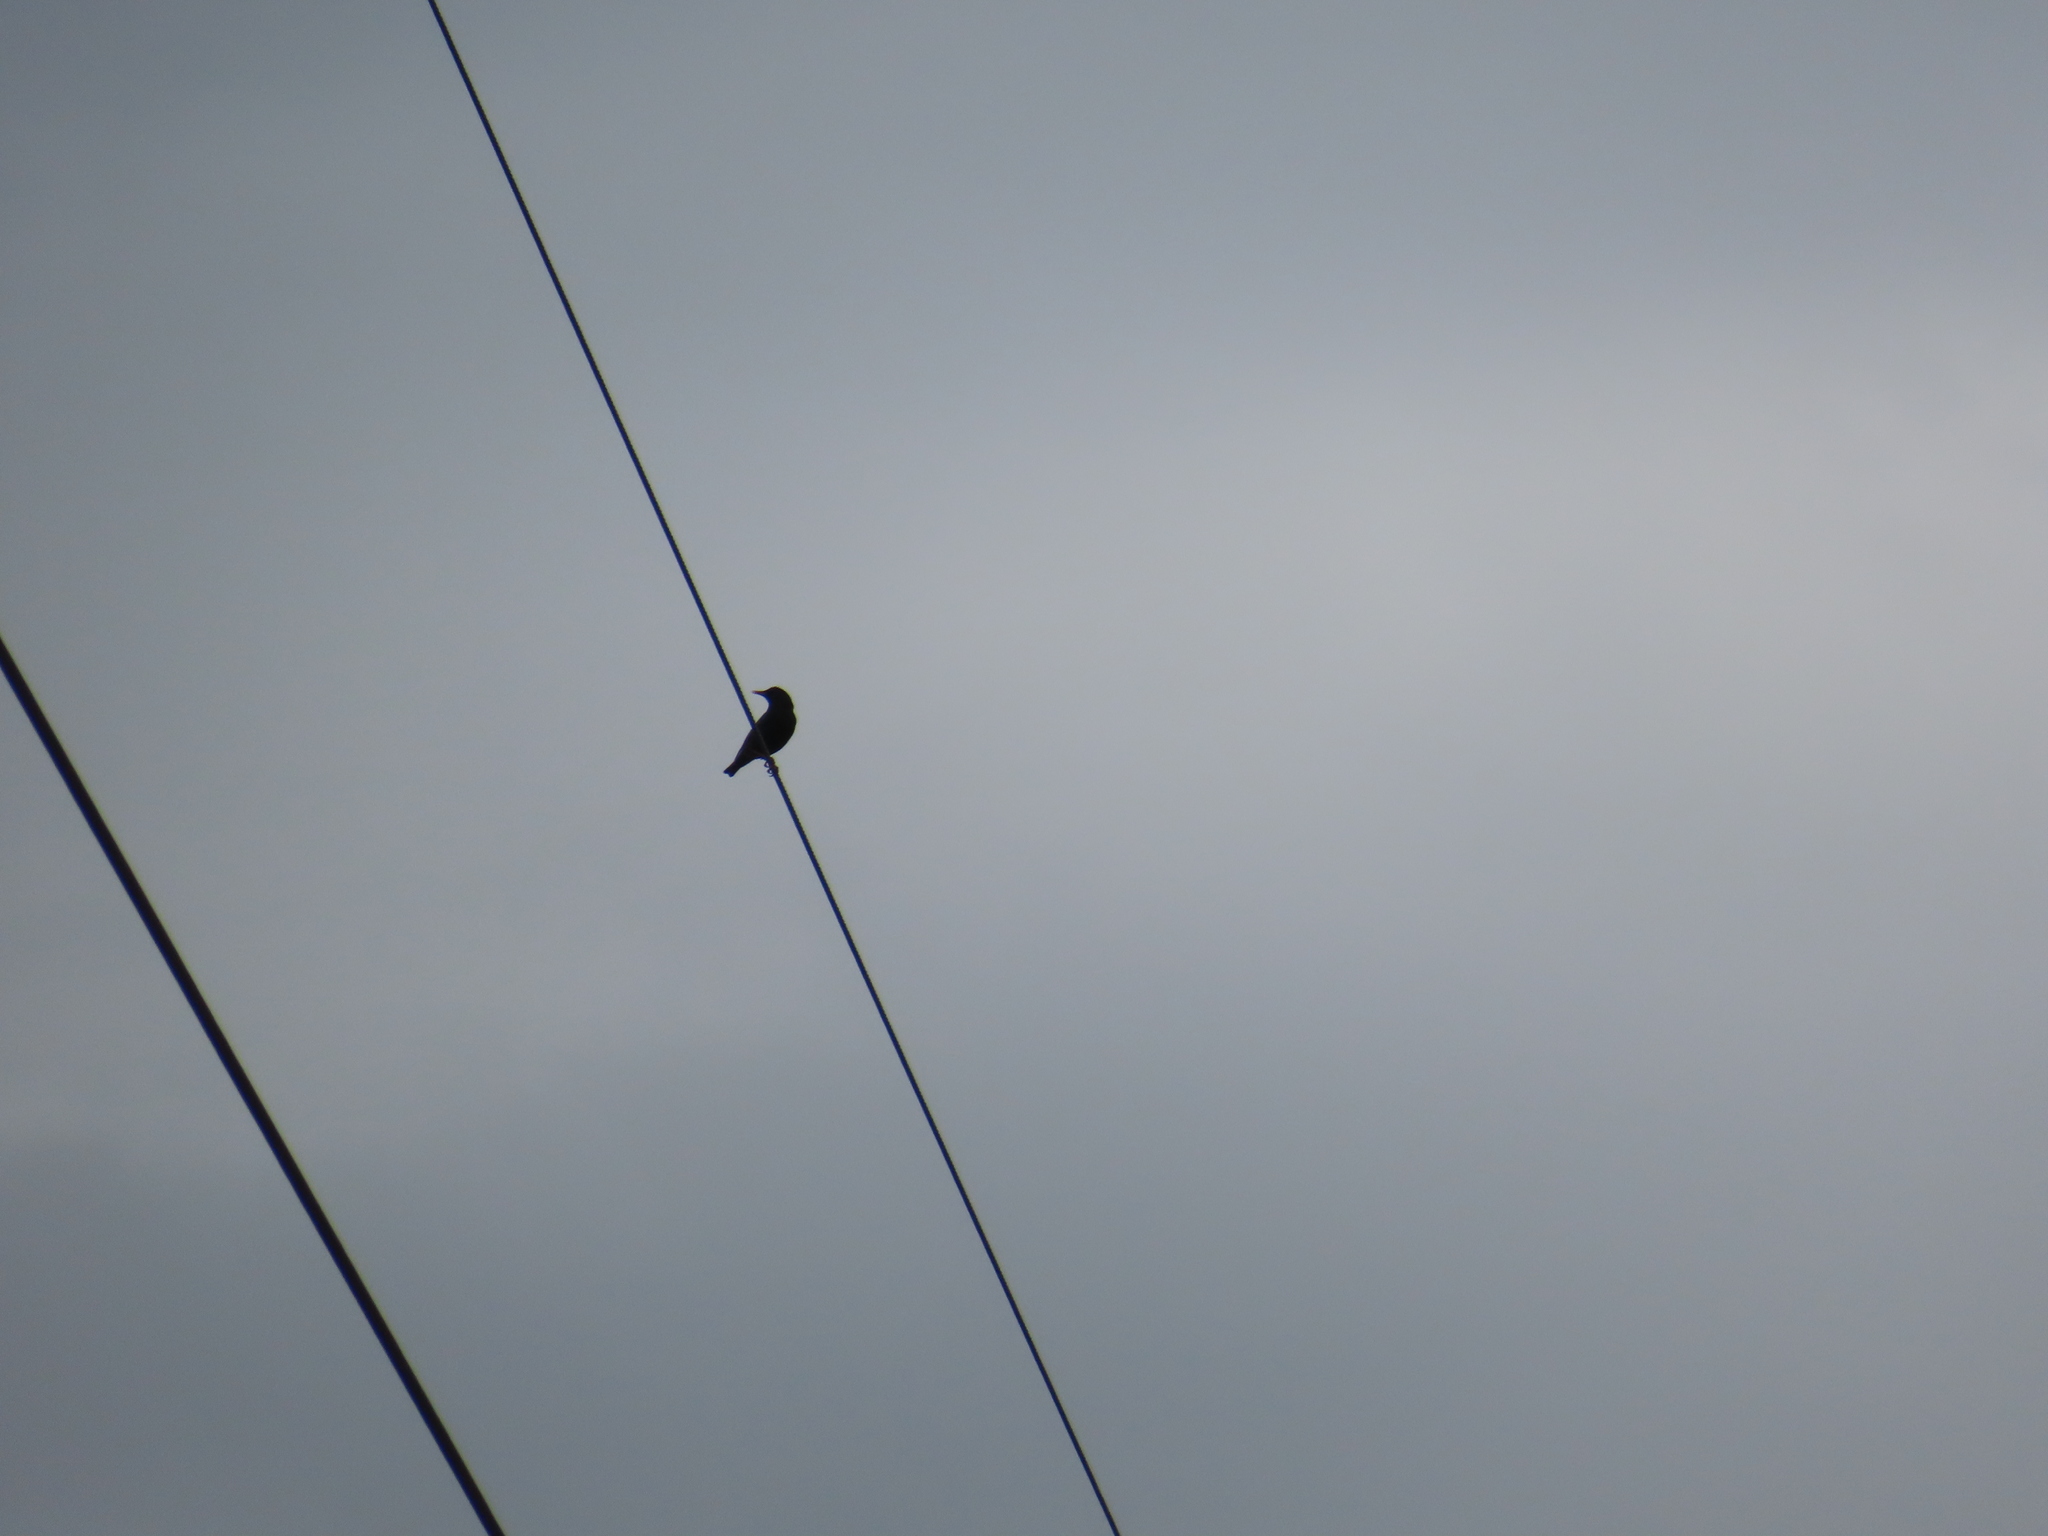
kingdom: Animalia
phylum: Chordata
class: Aves
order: Passeriformes
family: Sturnidae
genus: Sturnus
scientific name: Sturnus vulgaris
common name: Common starling
